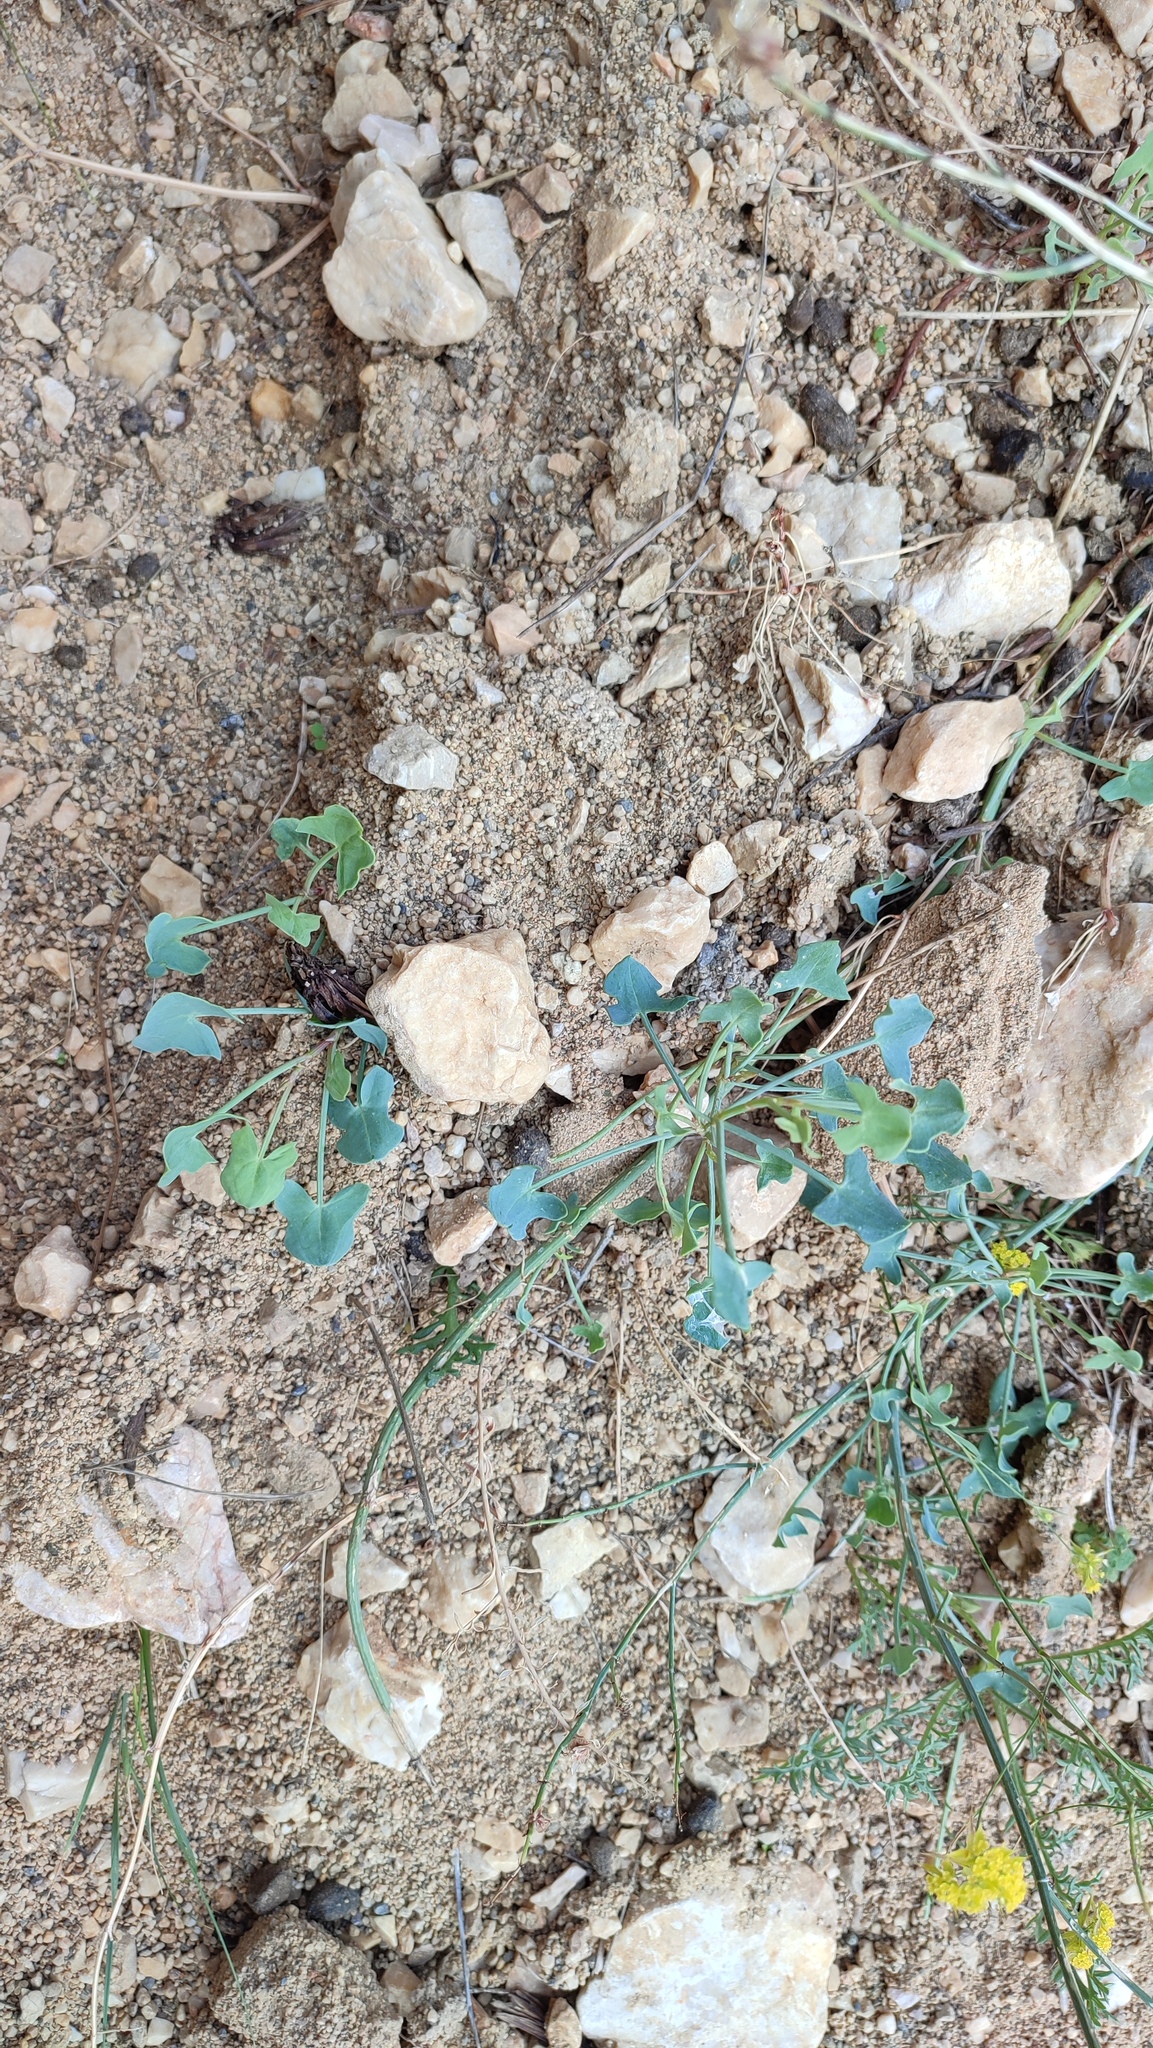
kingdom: Plantae
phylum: Tracheophyta
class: Magnoliopsida
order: Caryophyllales
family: Polygonaceae
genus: Rumex
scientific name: Rumex scutatus
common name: French sorrel
